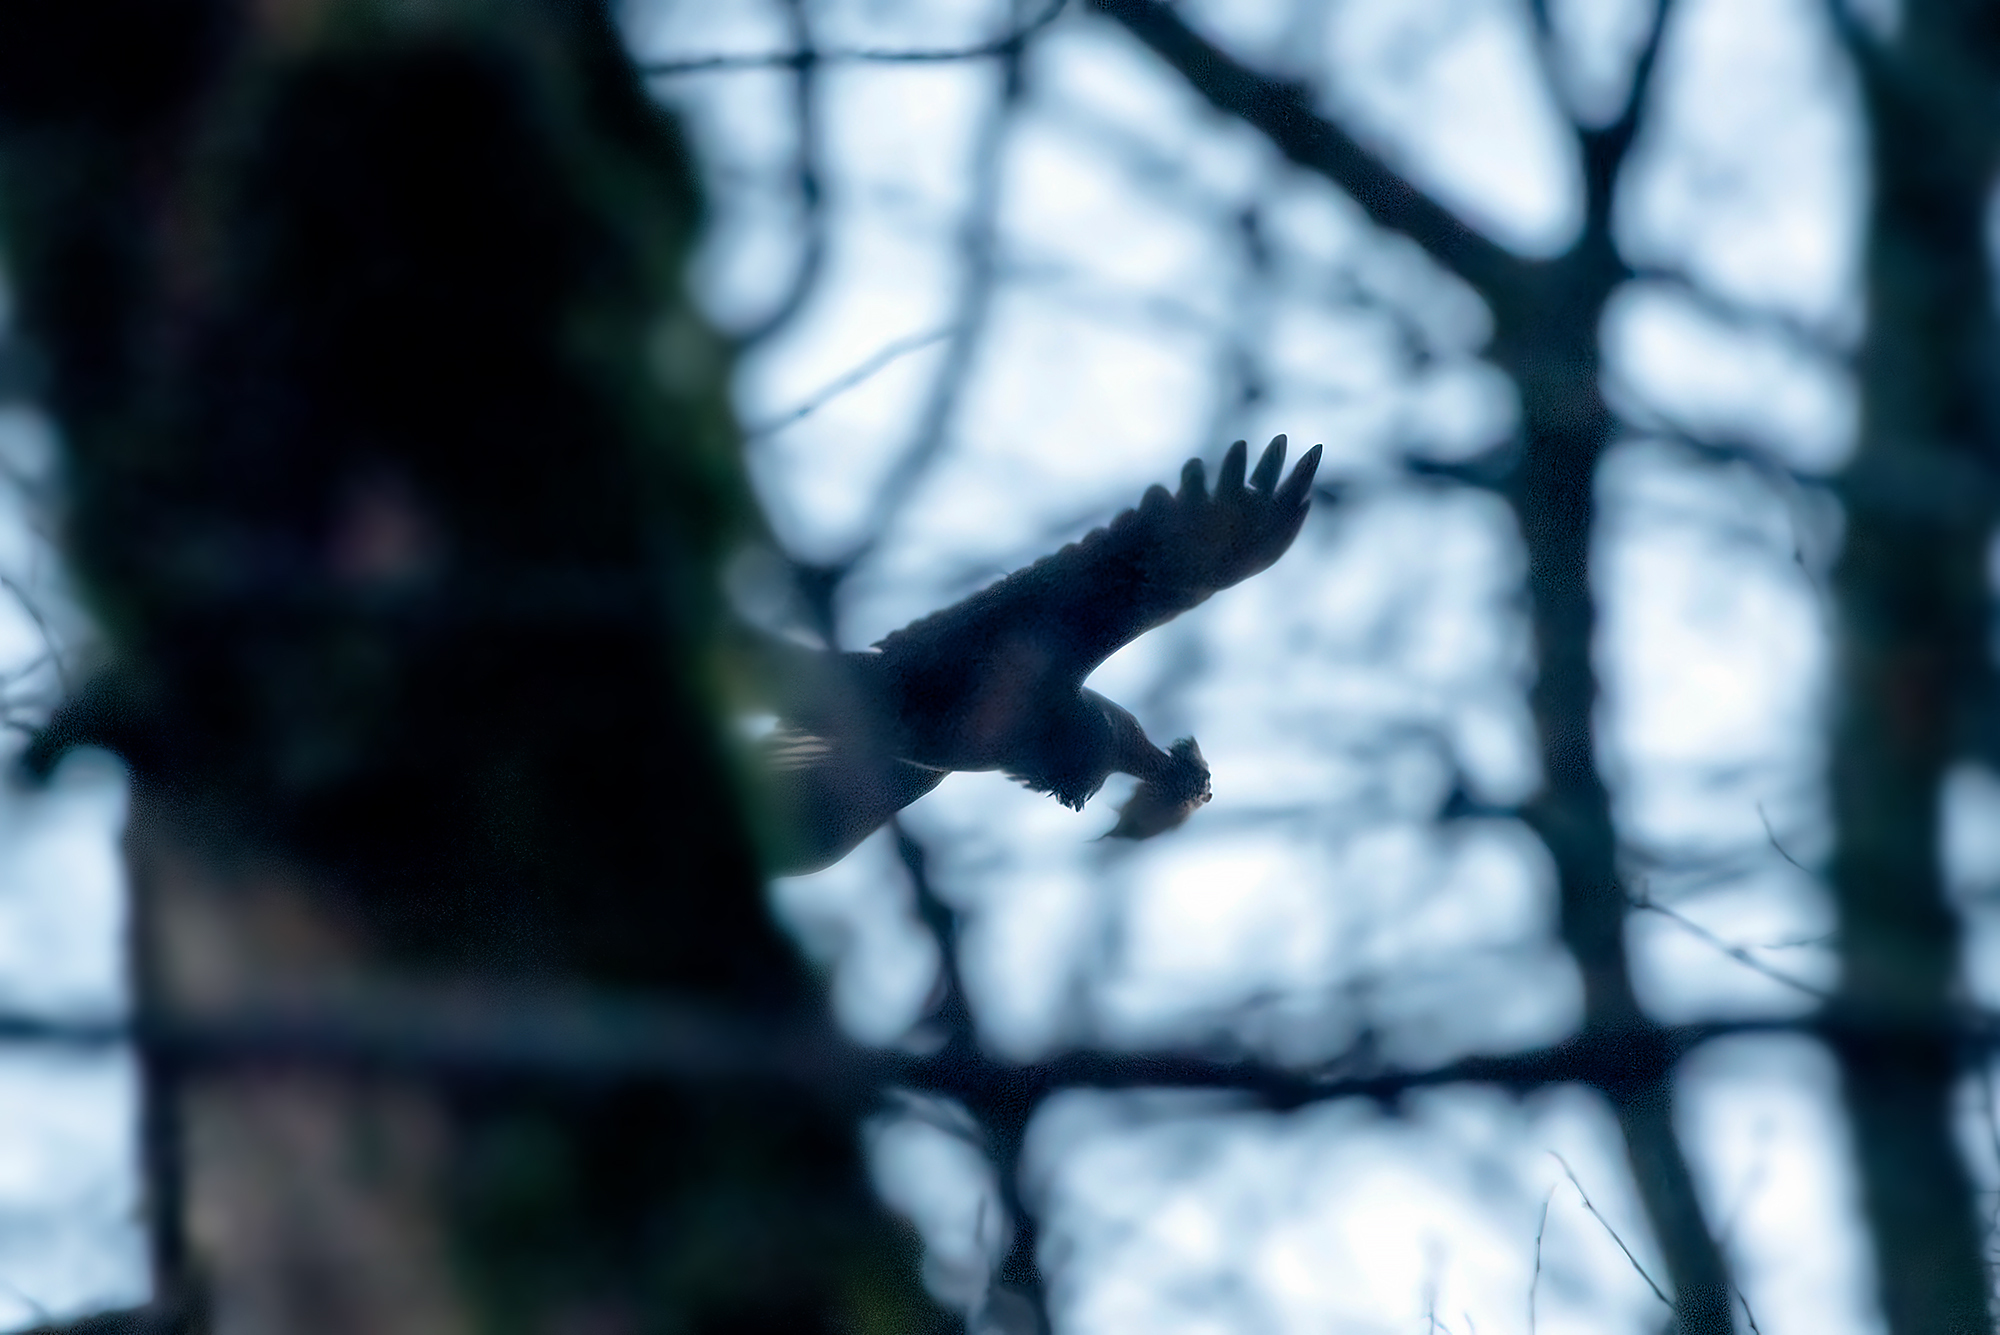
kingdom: Animalia
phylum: Chordata
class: Aves
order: Passeriformes
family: Corvidae
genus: Corvus
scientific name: Corvus corax
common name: Common raven
